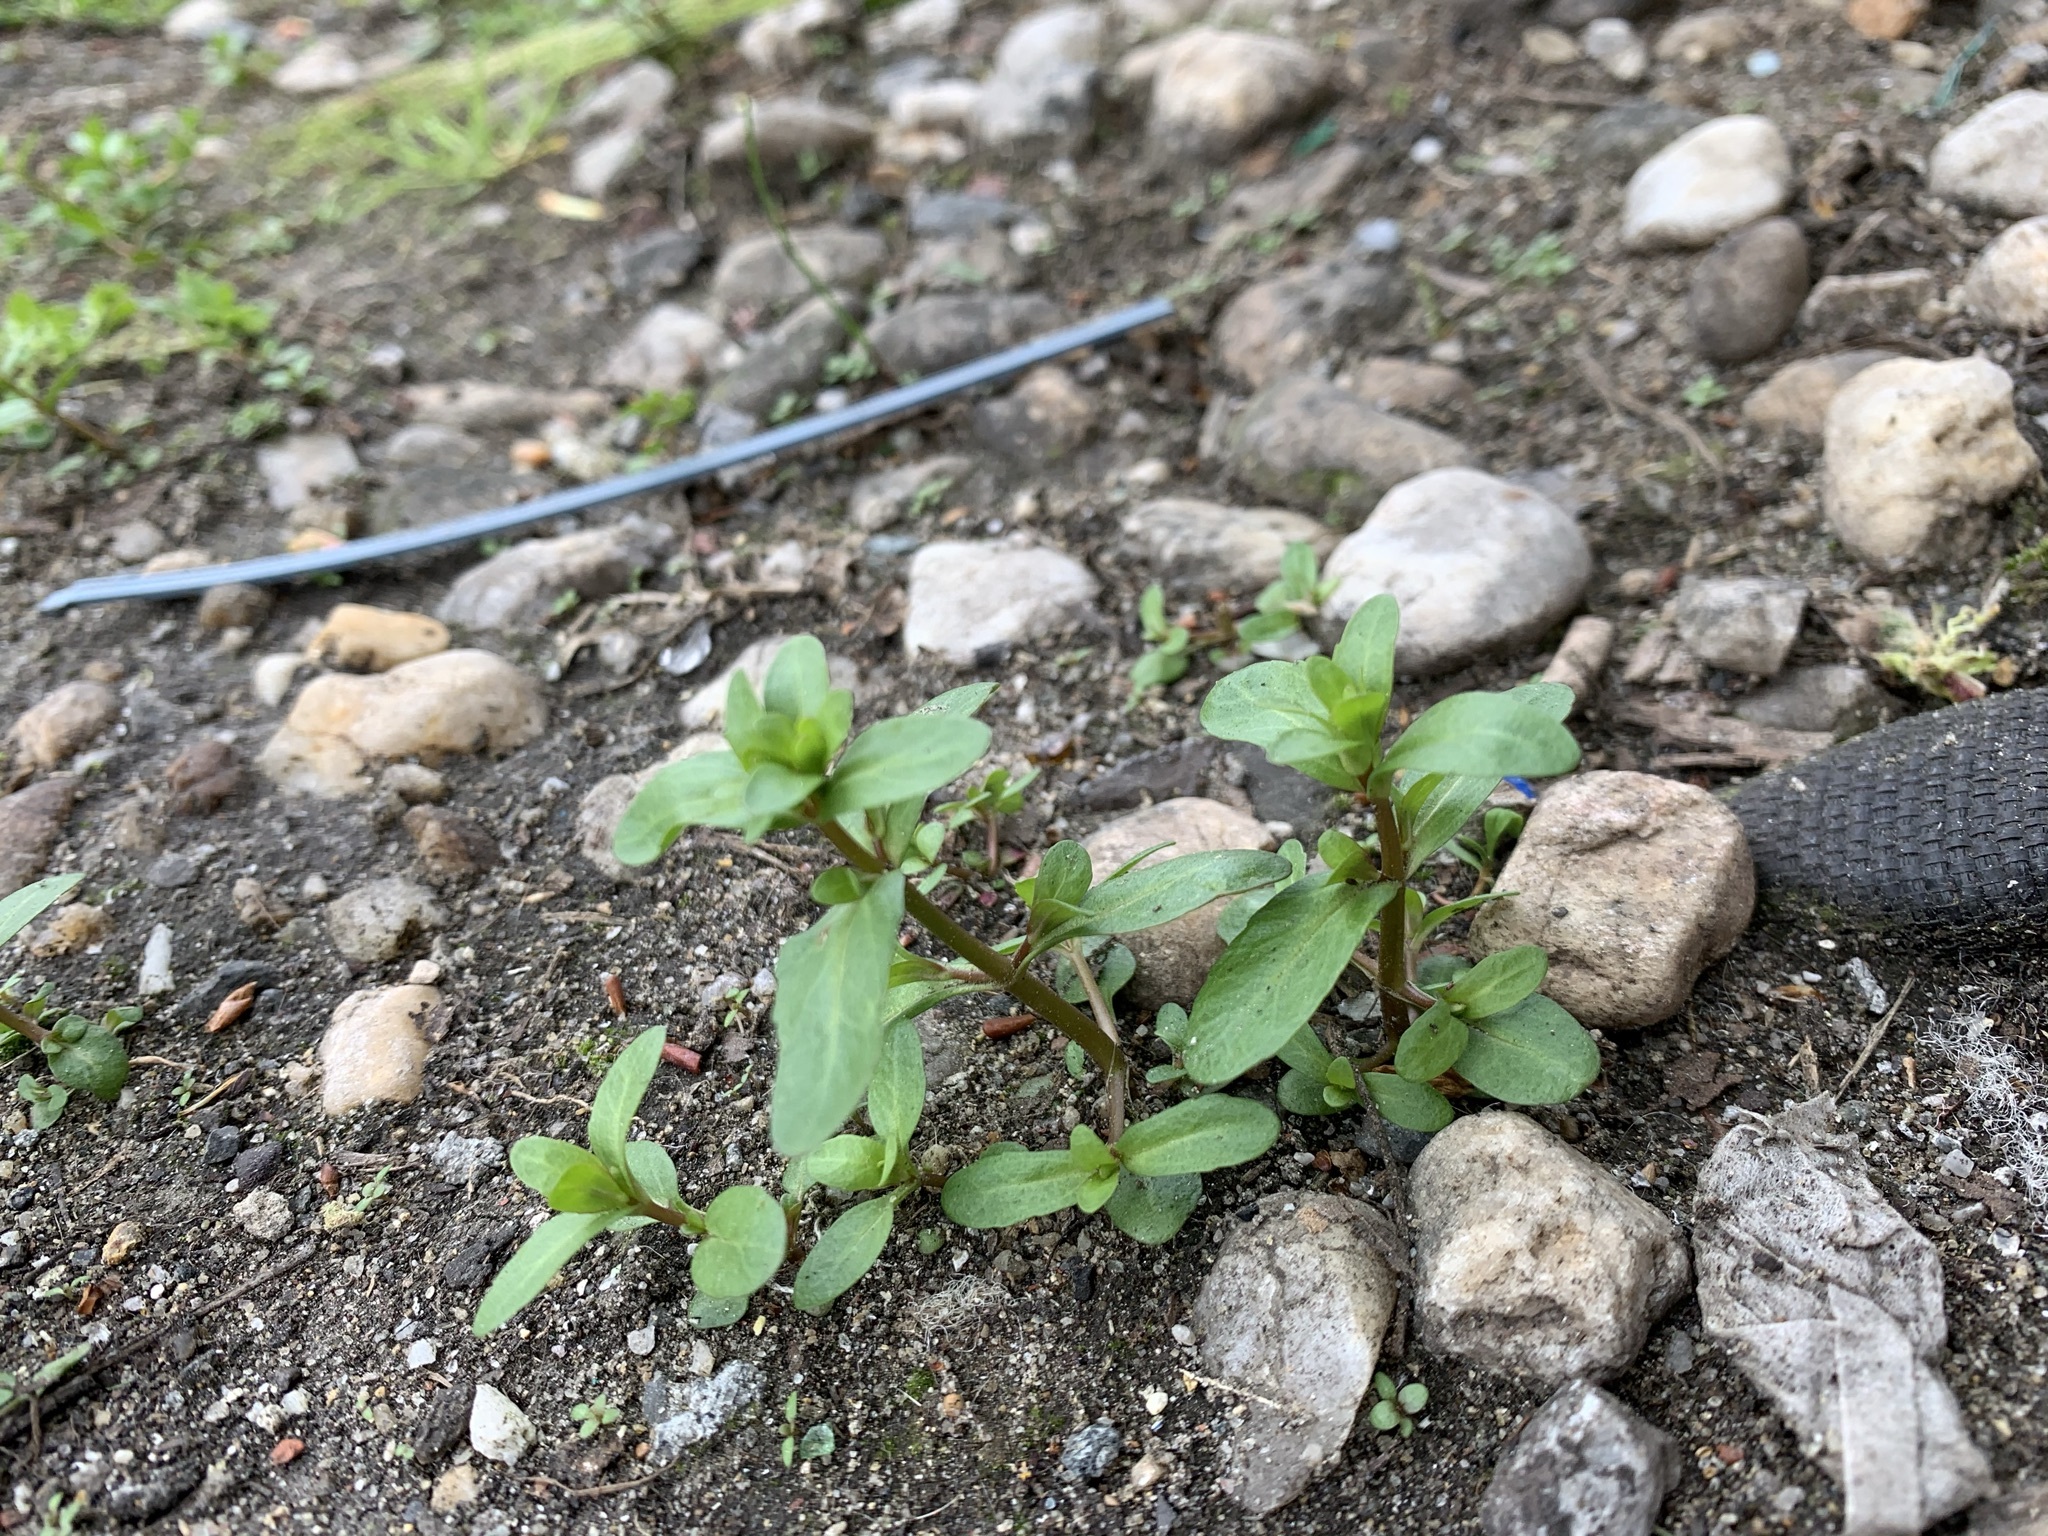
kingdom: Plantae
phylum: Tracheophyta
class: Magnoliopsida
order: Lamiales
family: Plantaginaceae
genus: Veronica
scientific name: Veronica peregrina
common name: Neckweed
